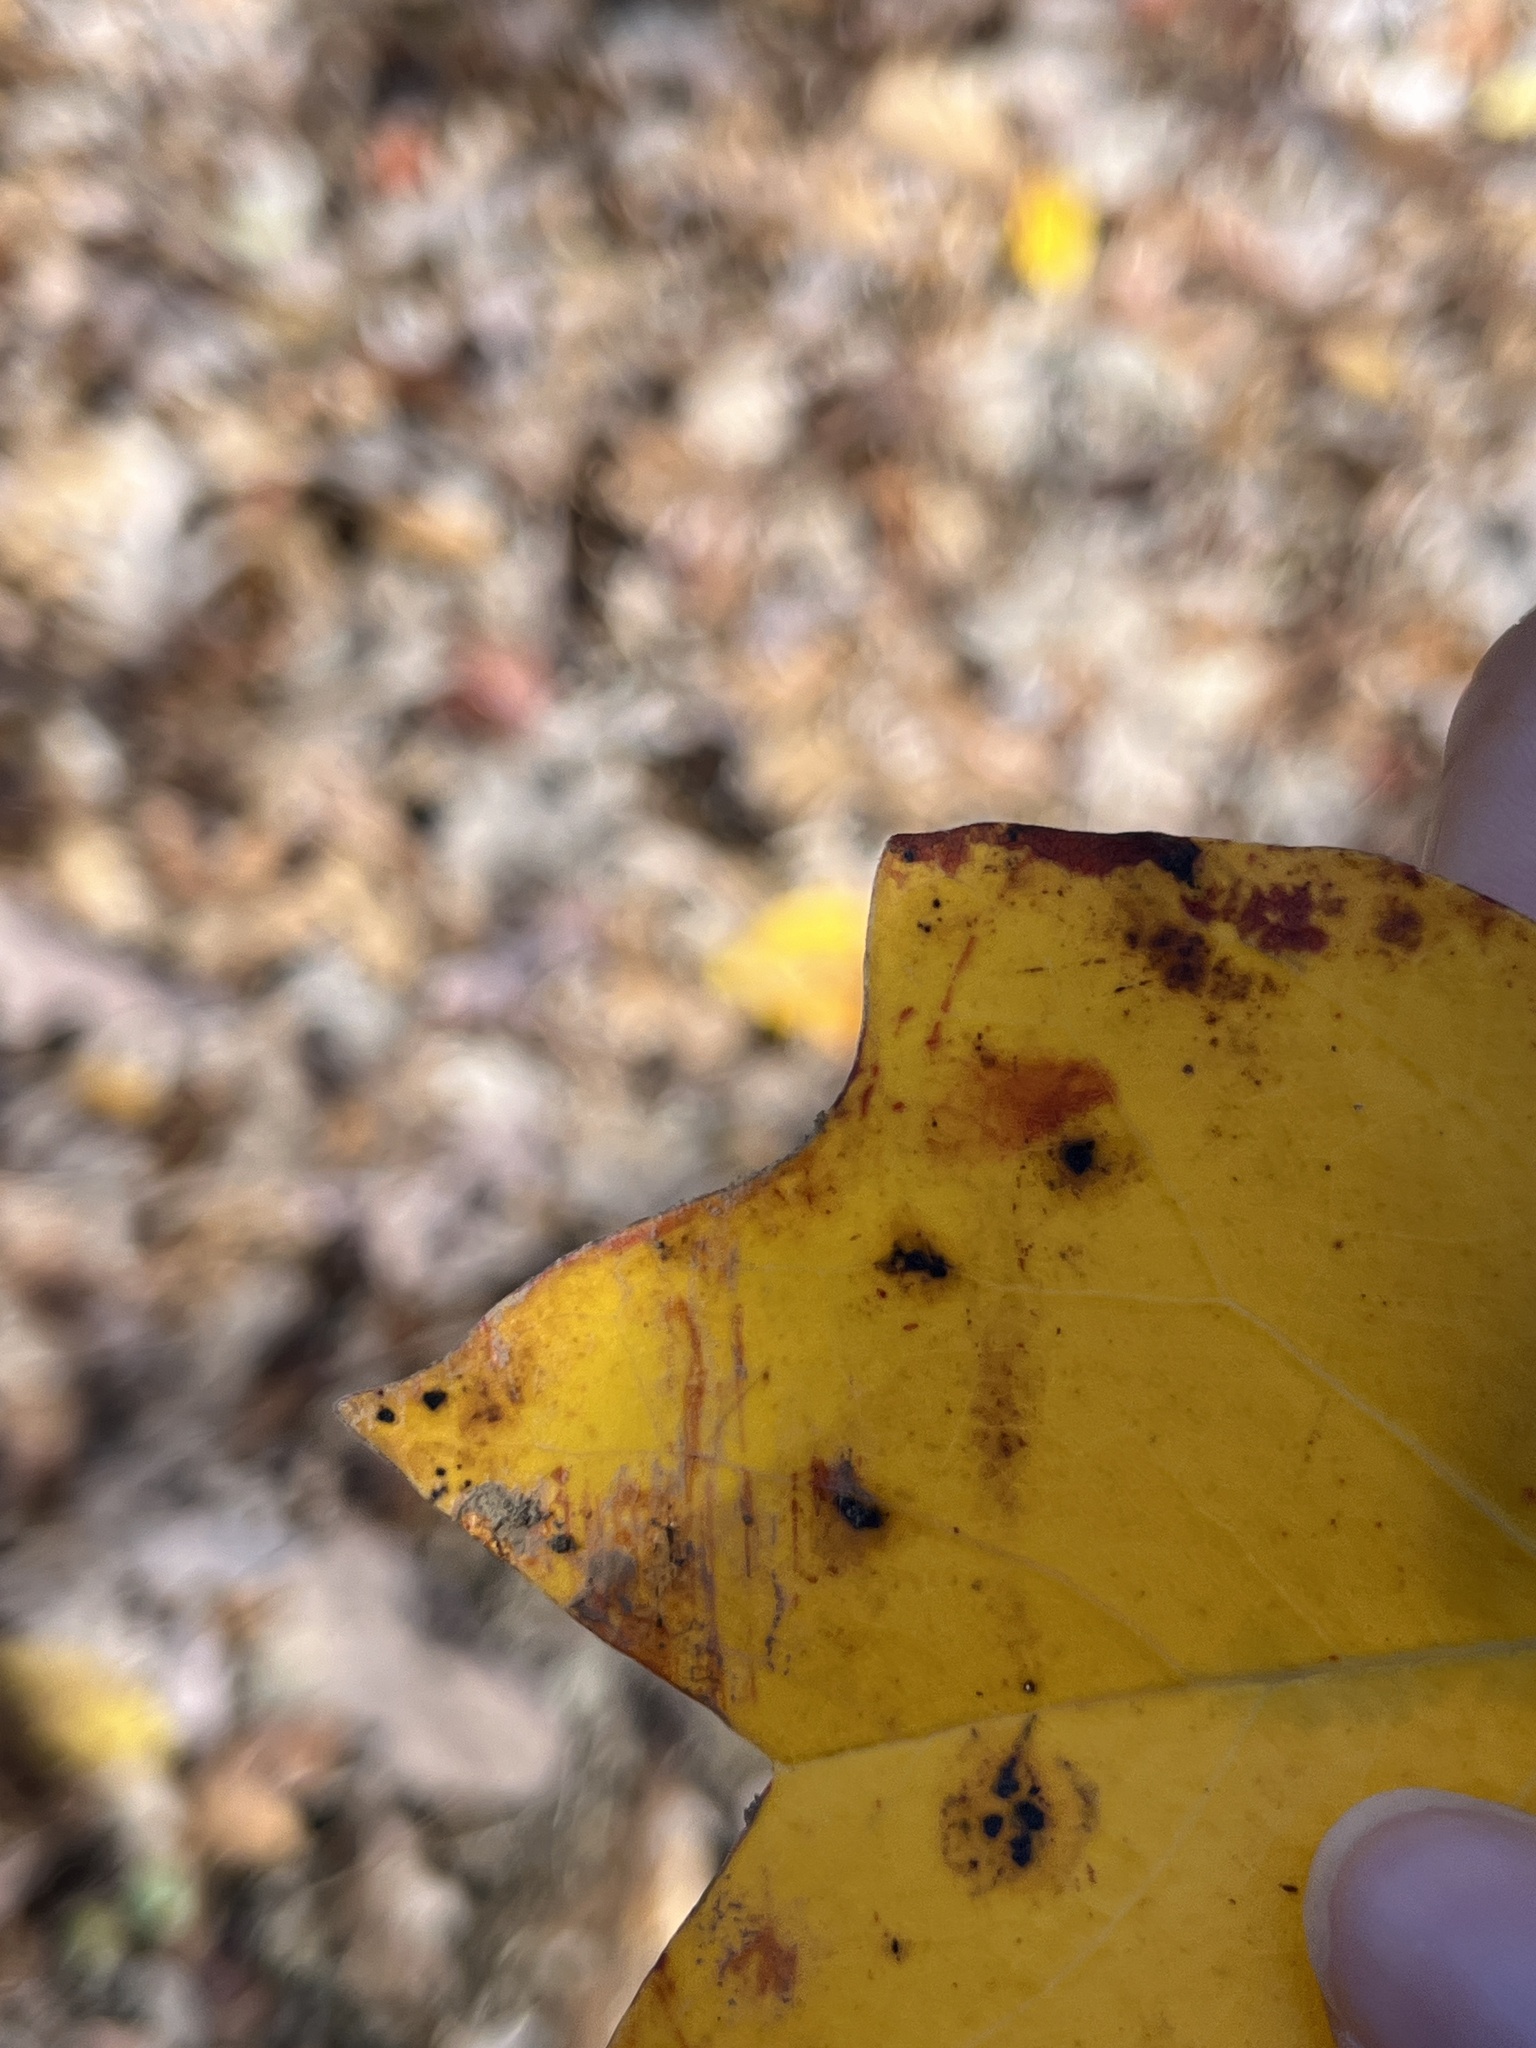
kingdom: Animalia
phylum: Arthropoda
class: Insecta
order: Lepidoptera
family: Gracillariidae
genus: Phyllocnistis
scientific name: Phyllocnistis liriodendronella
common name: Tulip tree leaf miner
